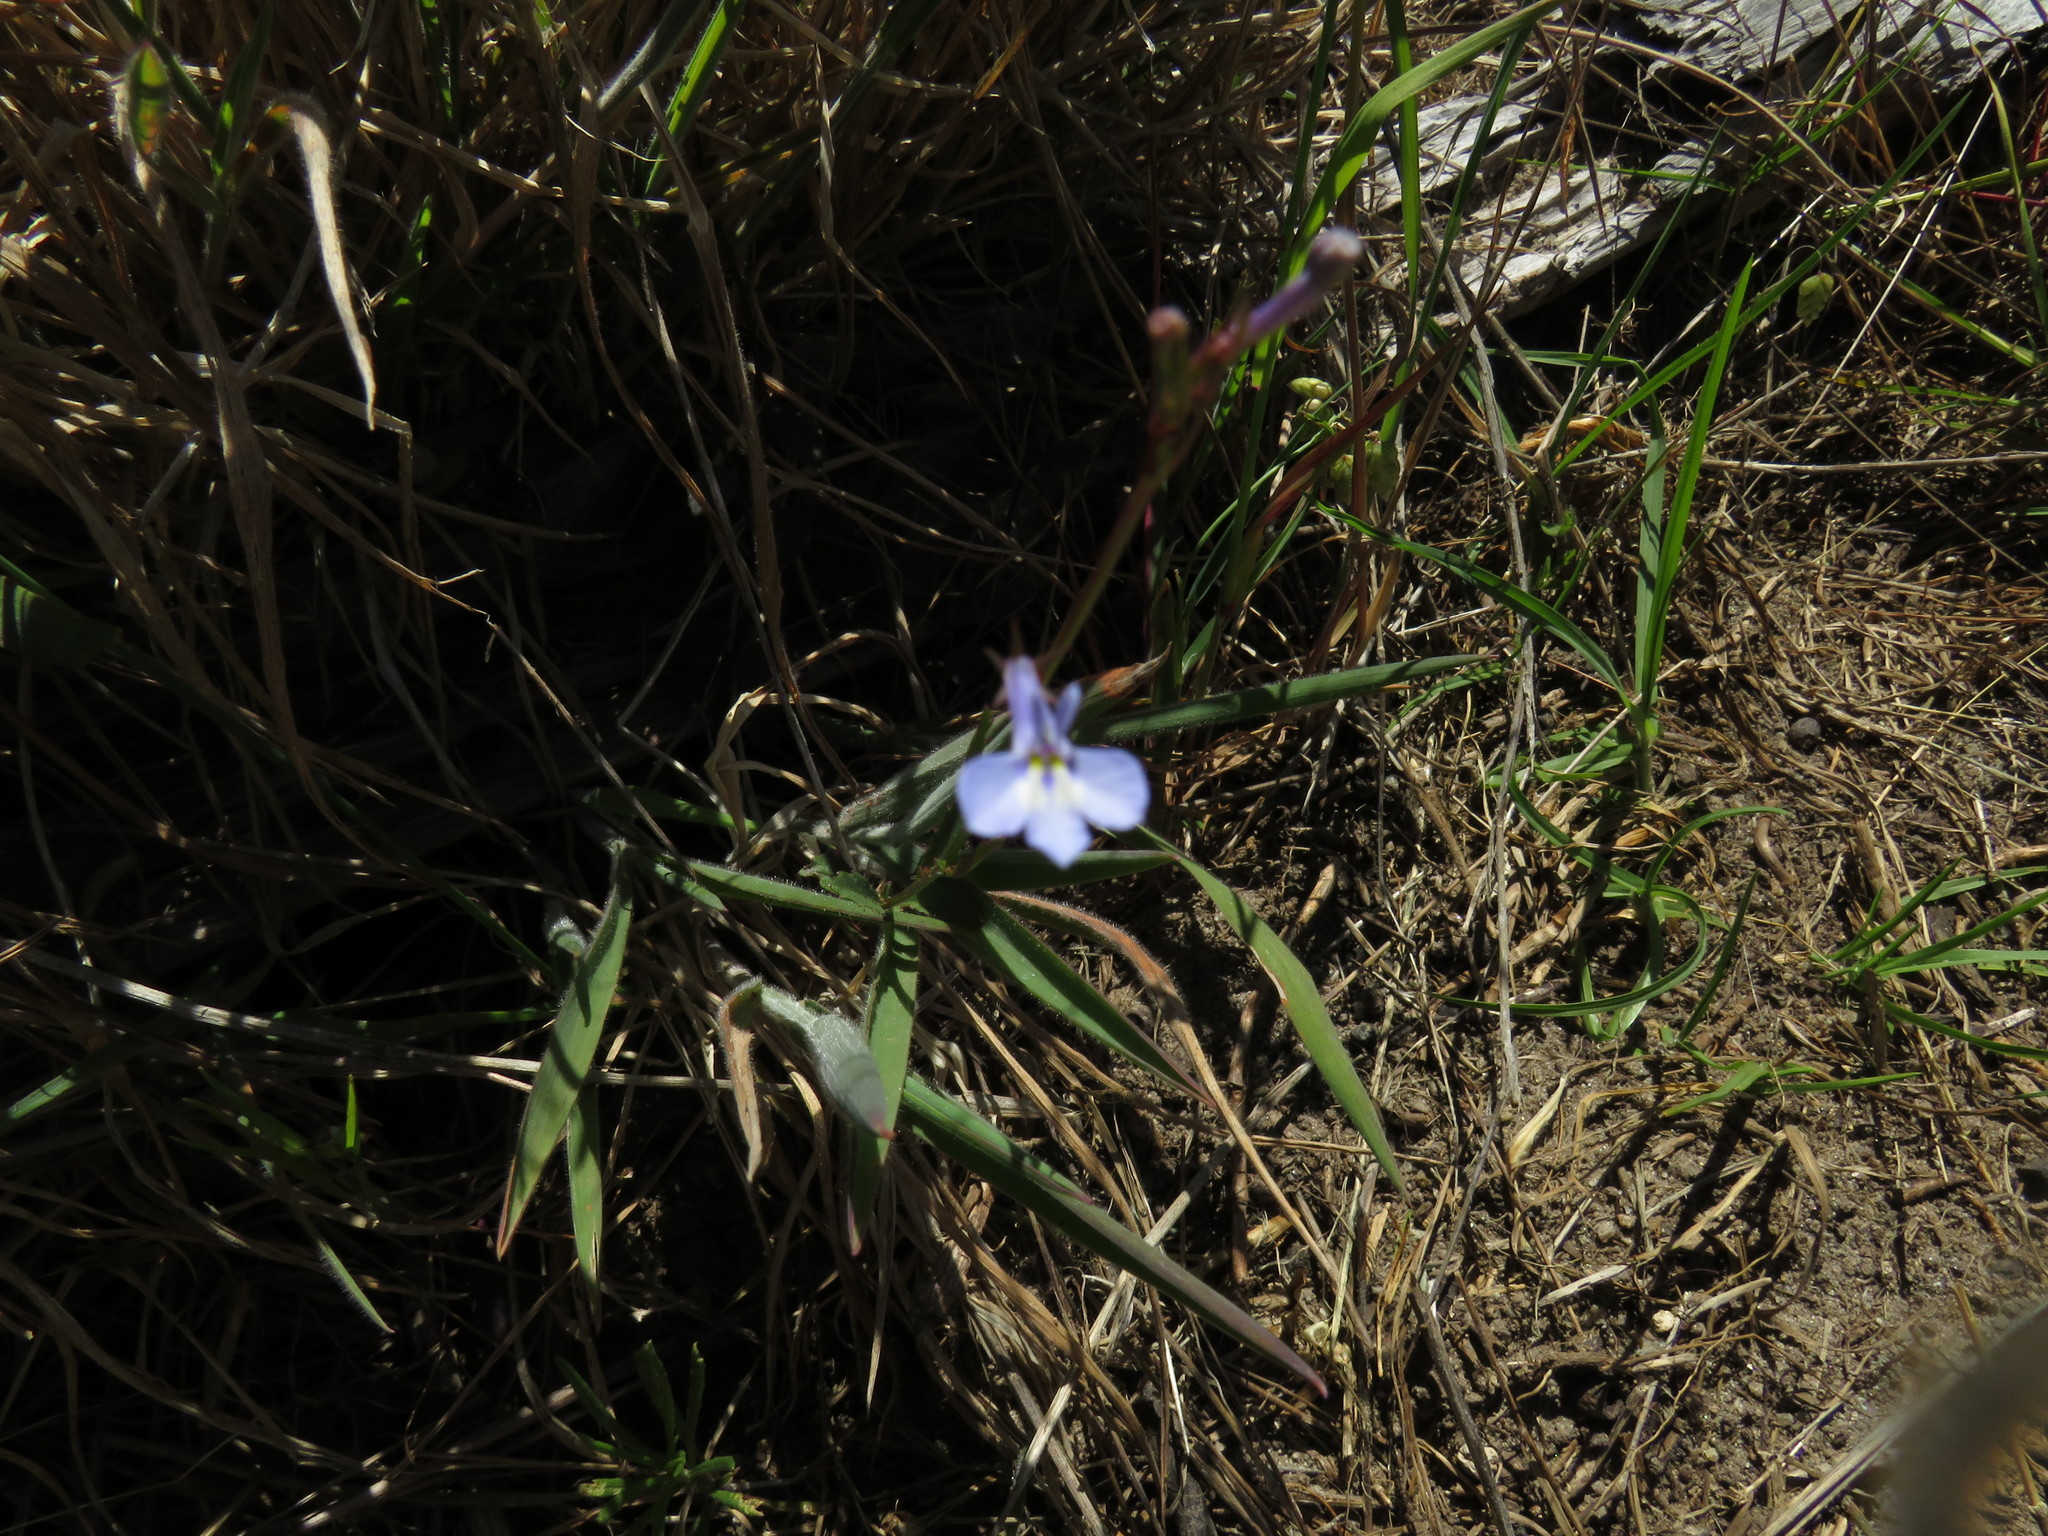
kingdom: Plantae
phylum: Tracheophyta
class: Magnoliopsida
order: Asterales
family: Campanulaceae
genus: Lobelia
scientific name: Lobelia erinus
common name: Edging lobelia
